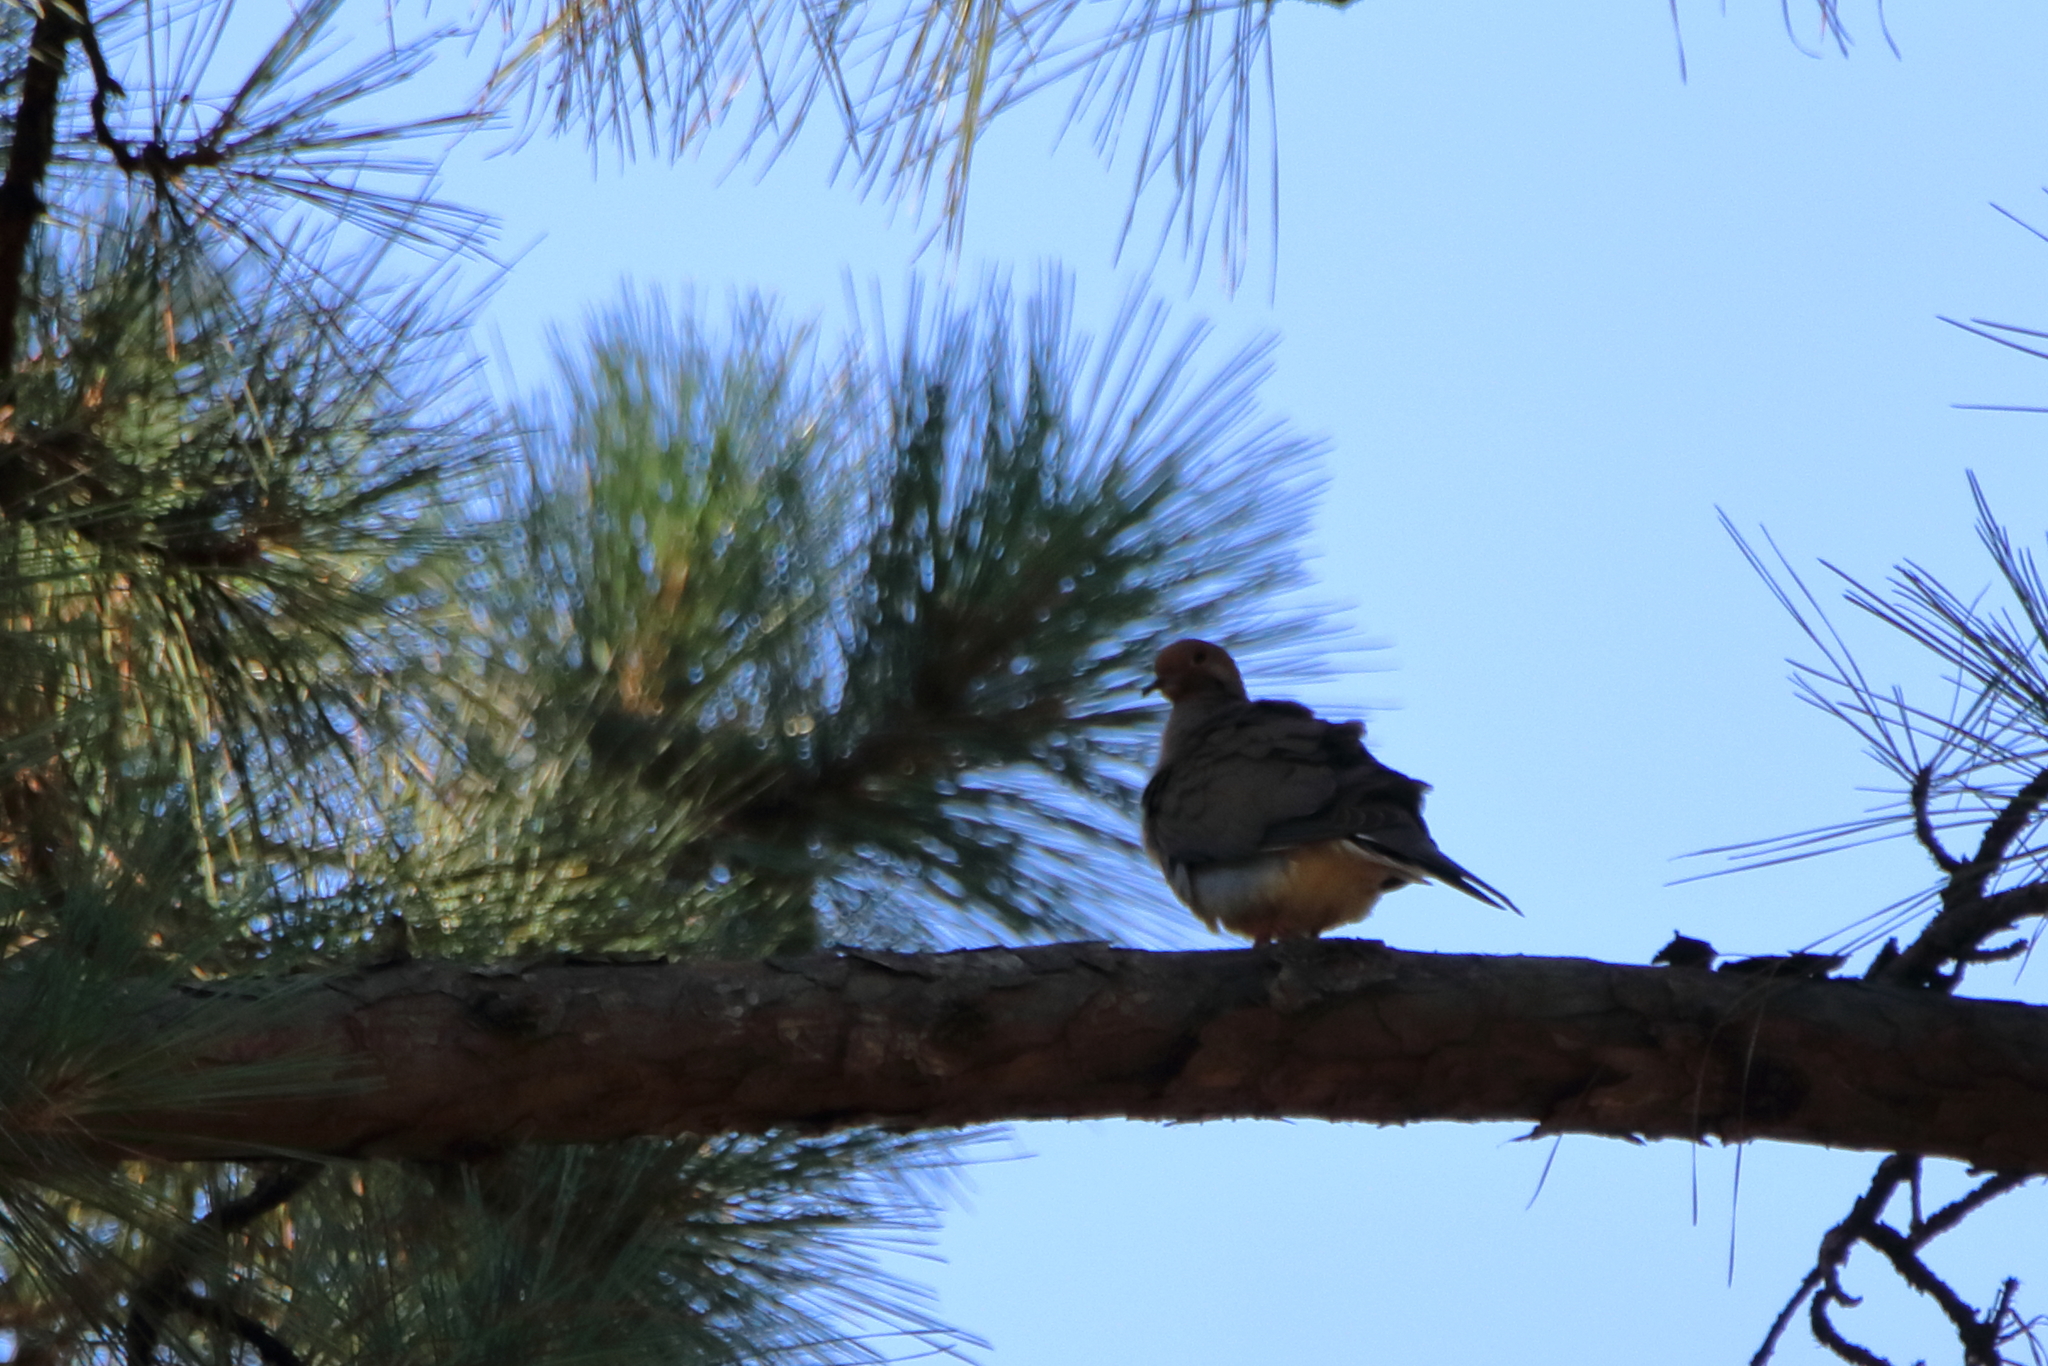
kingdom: Animalia
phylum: Chordata
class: Aves
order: Columbiformes
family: Columbidae
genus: Zenaida
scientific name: Zenaida macroura
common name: Mourning dove
